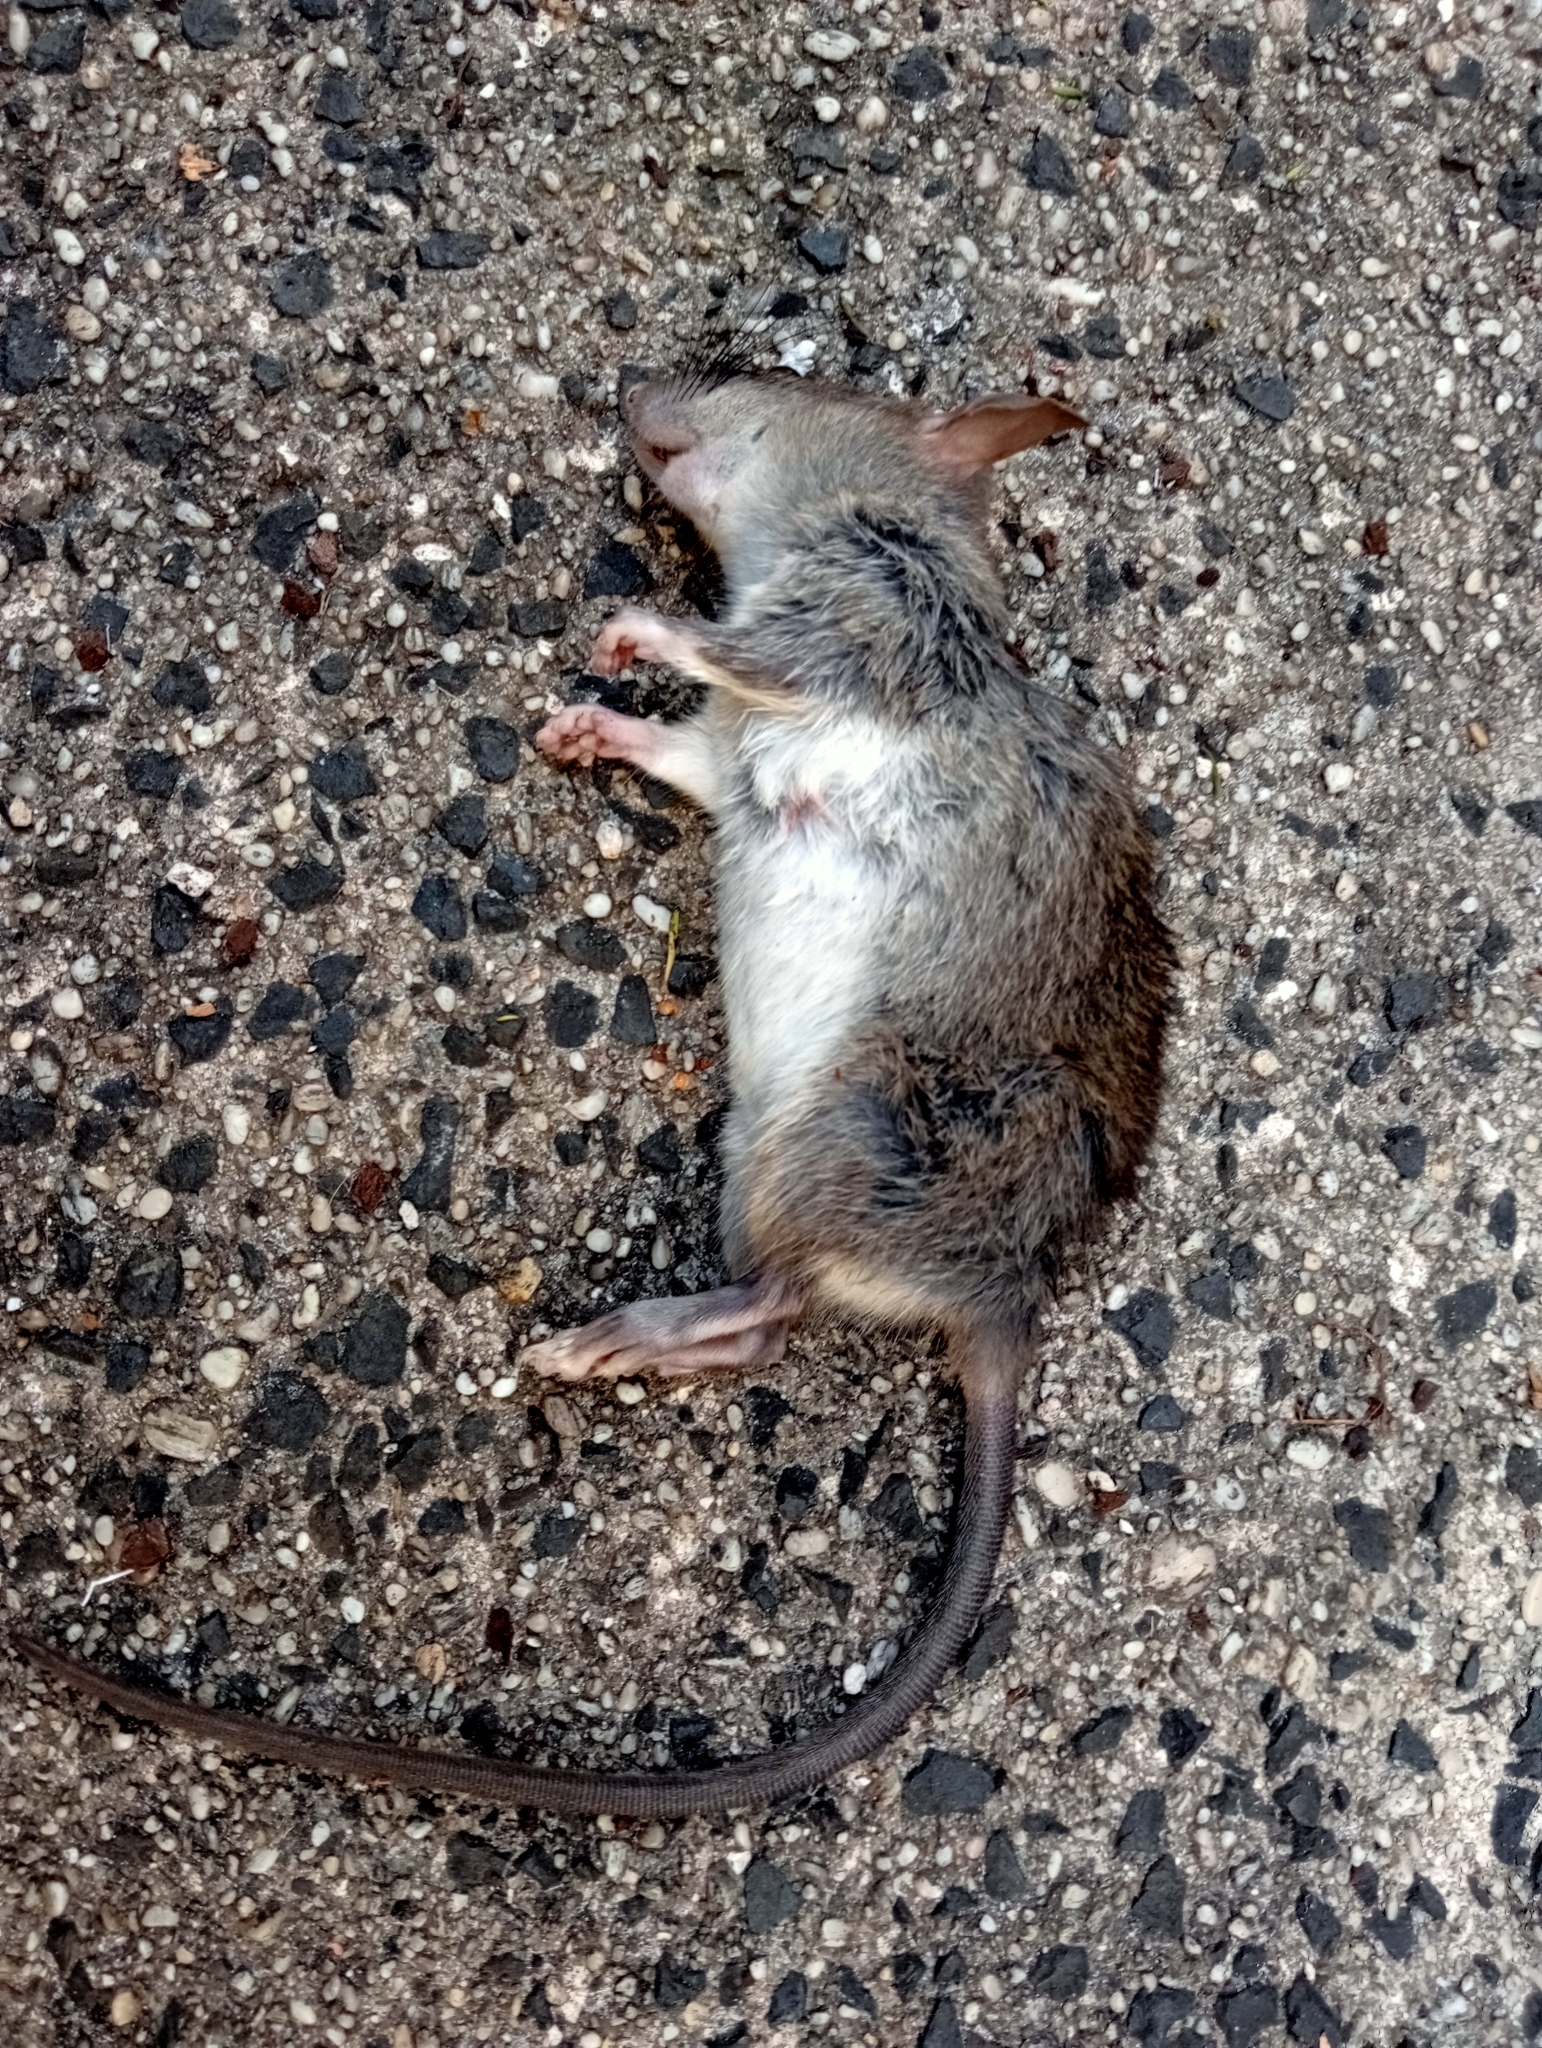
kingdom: Animalia
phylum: Chordata
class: Mammalia
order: Rodentia
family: Muridae
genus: Rattus
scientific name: Rattus rattus
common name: Black rat
